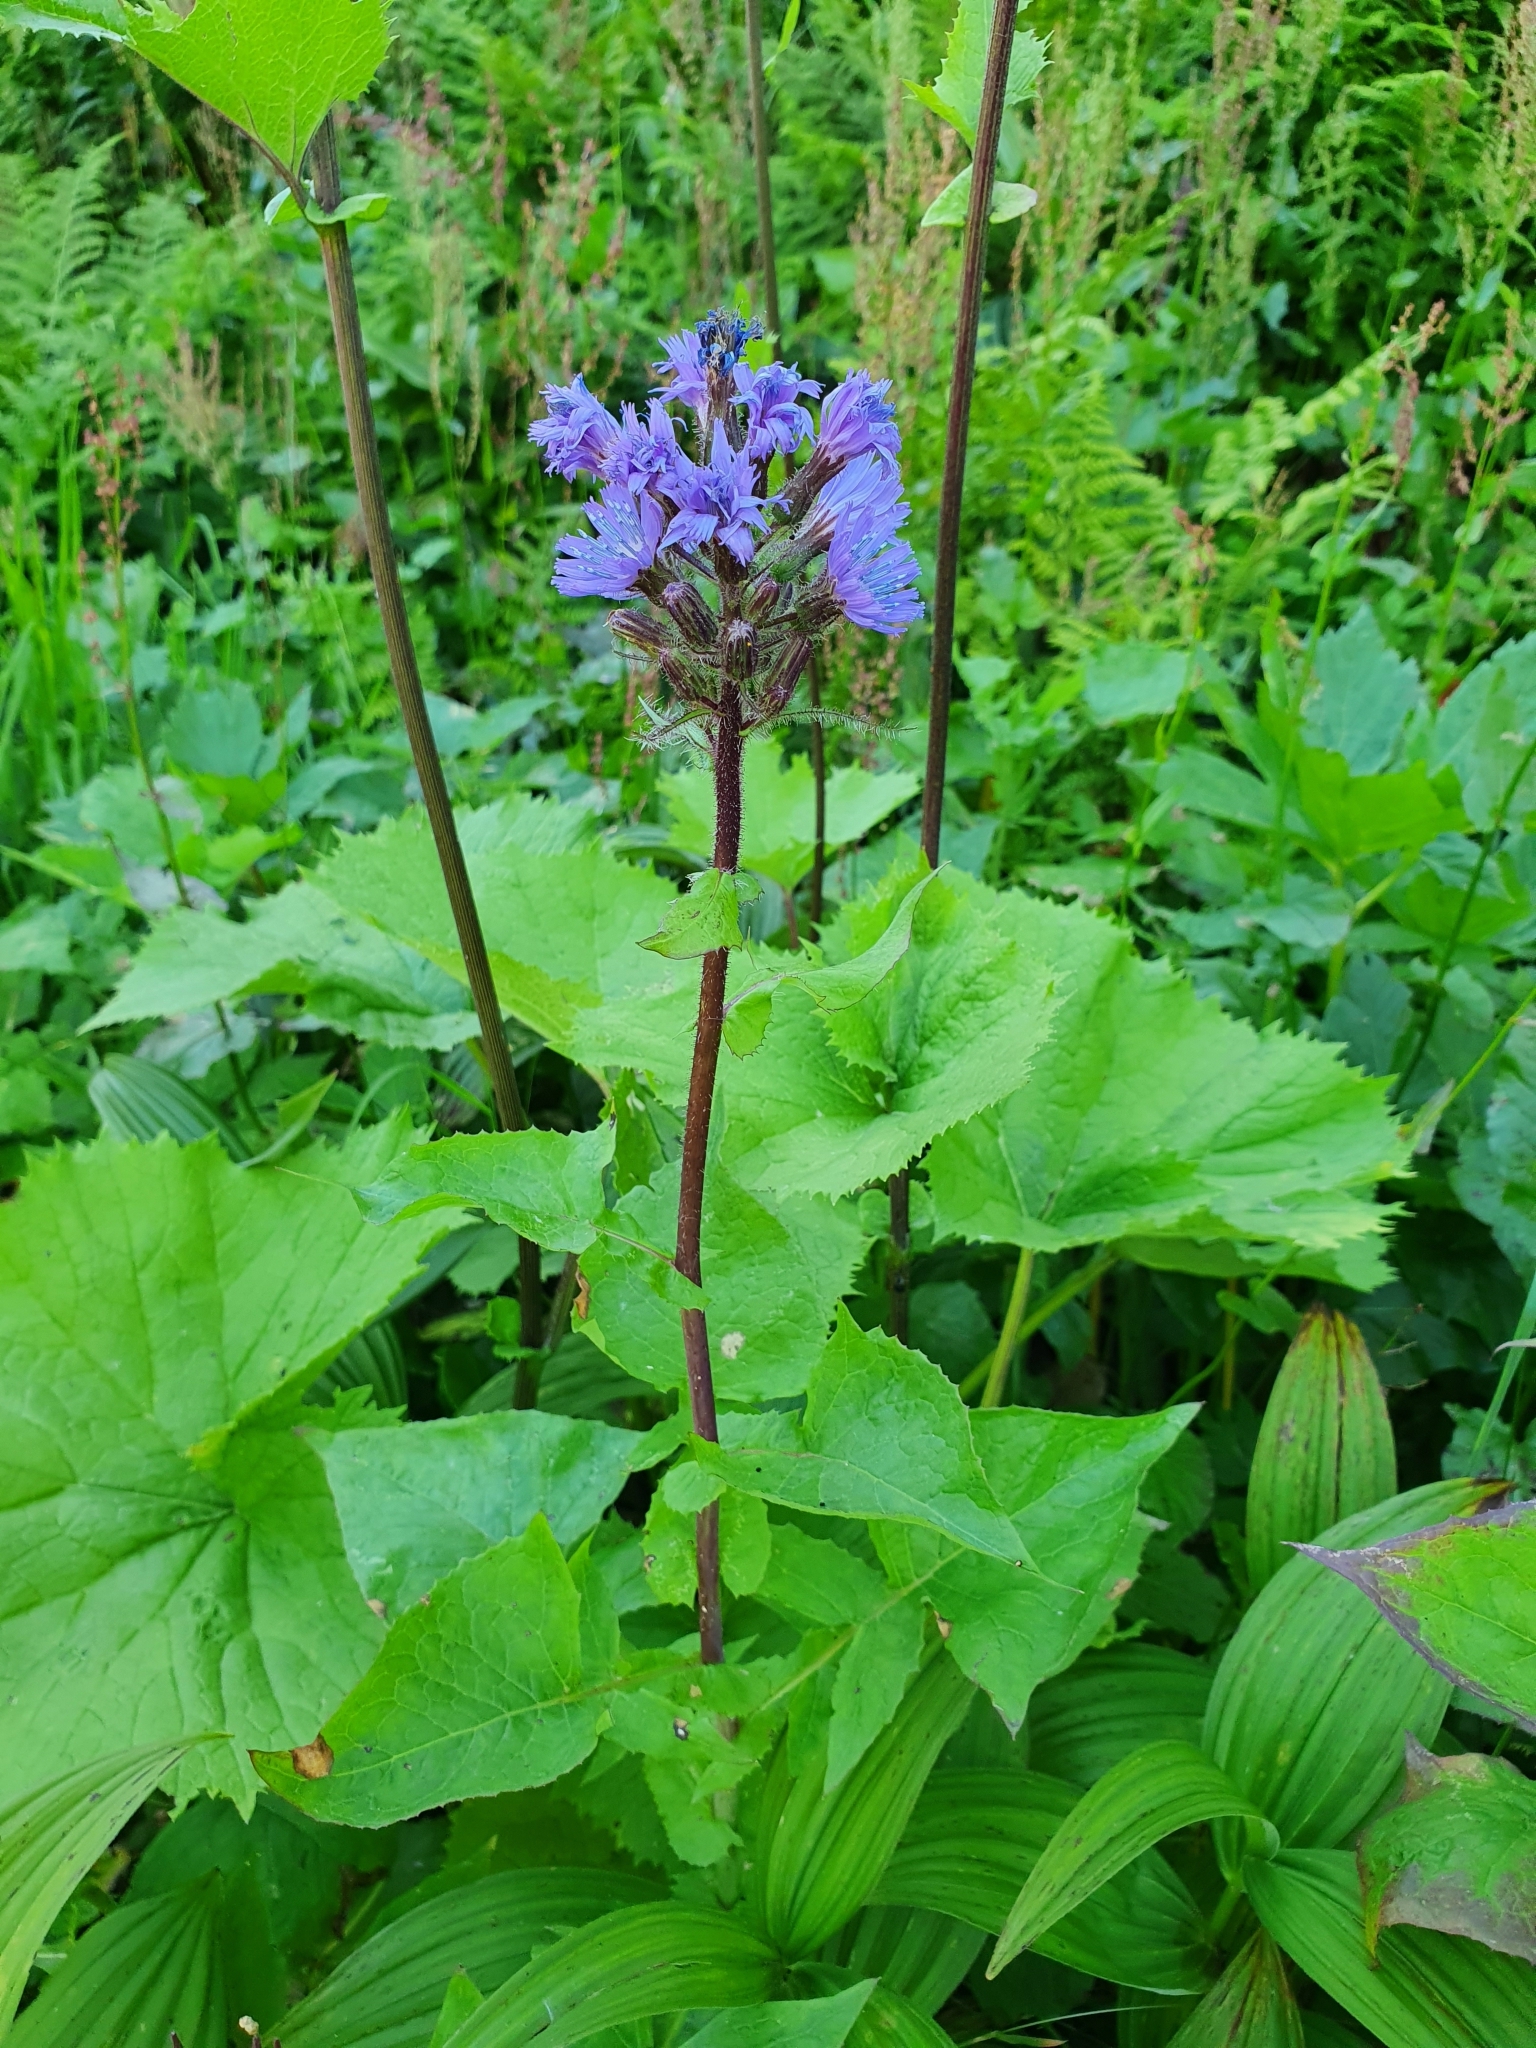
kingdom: Plantae
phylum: Tracheophyta
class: Magnoliopsida
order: Asterales
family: Asteraceae
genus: Cicerbita
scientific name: Cicerbita alpina
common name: Alpine blue-sow-thistle
